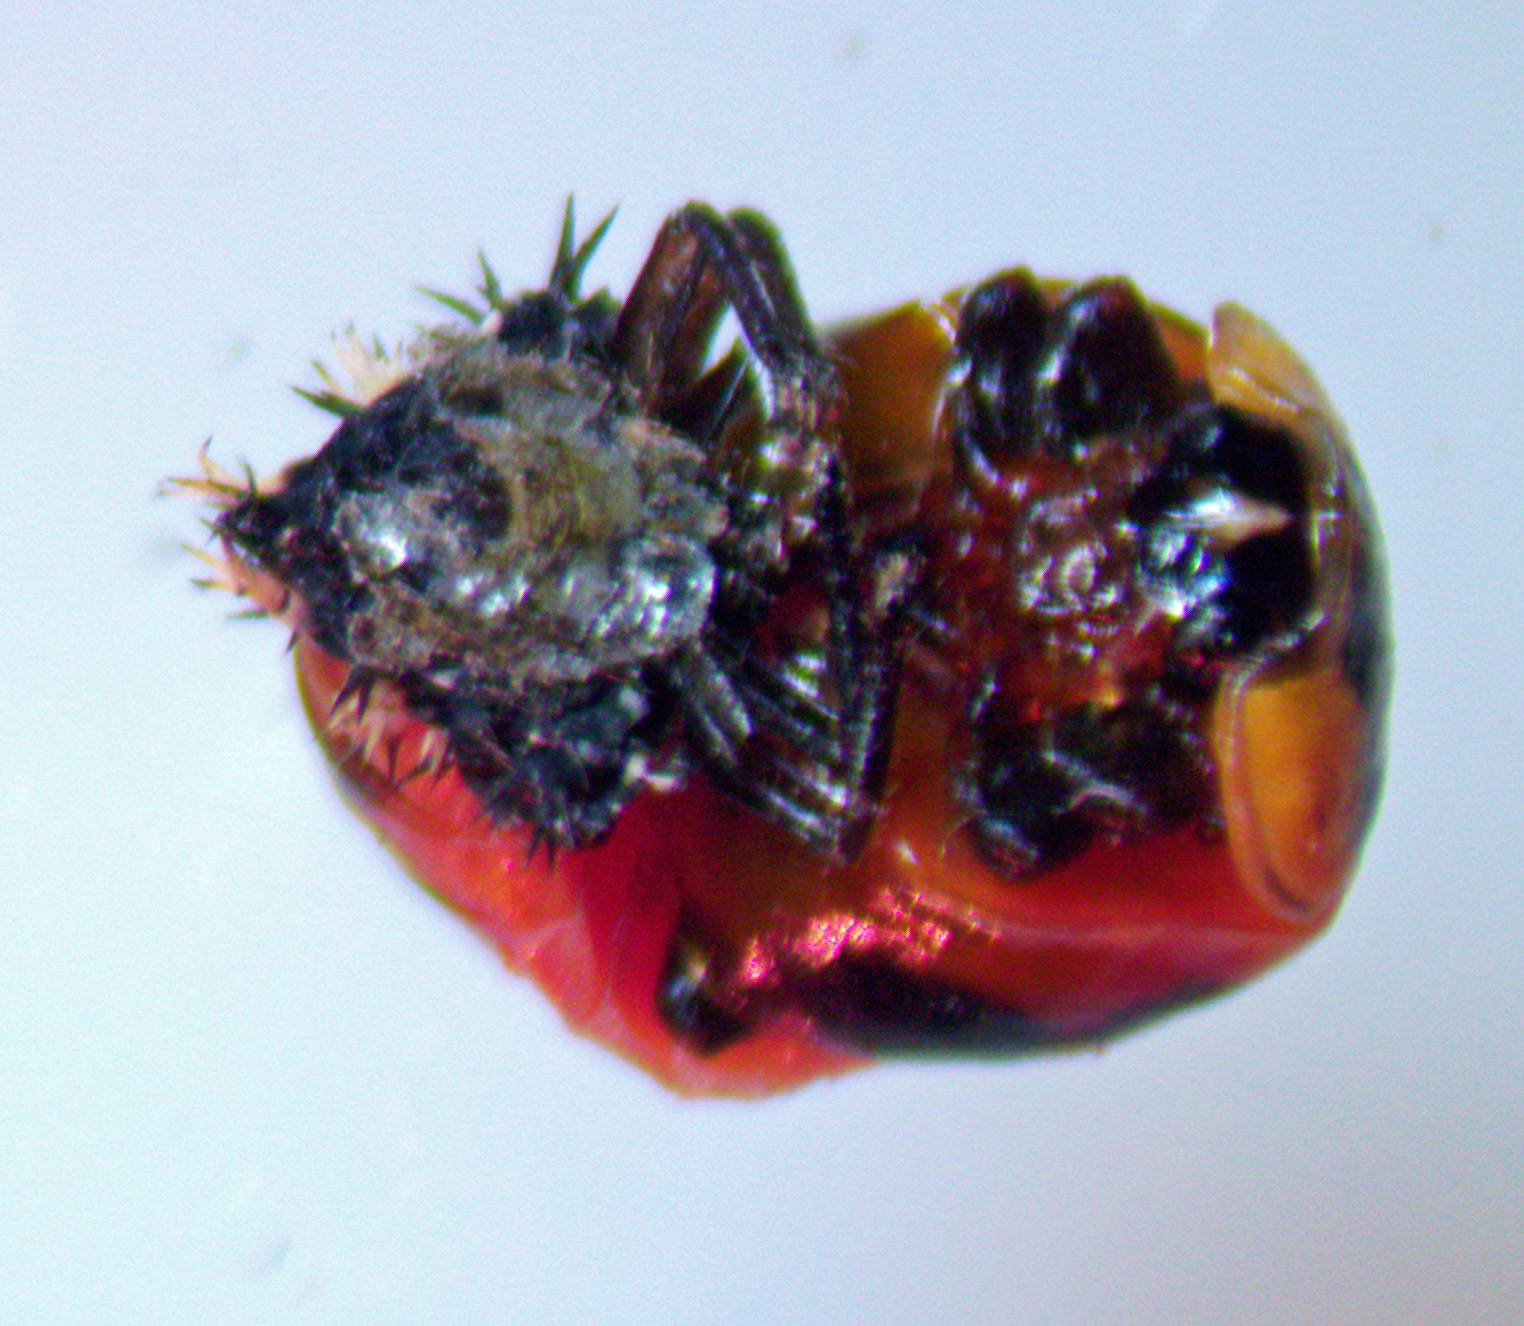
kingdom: Animalia
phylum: Arthropoda
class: Insecta
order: Coleoptera
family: Coccinellidae
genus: Harmonia
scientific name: Harmonia axyridis
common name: Harlequin ladybird
